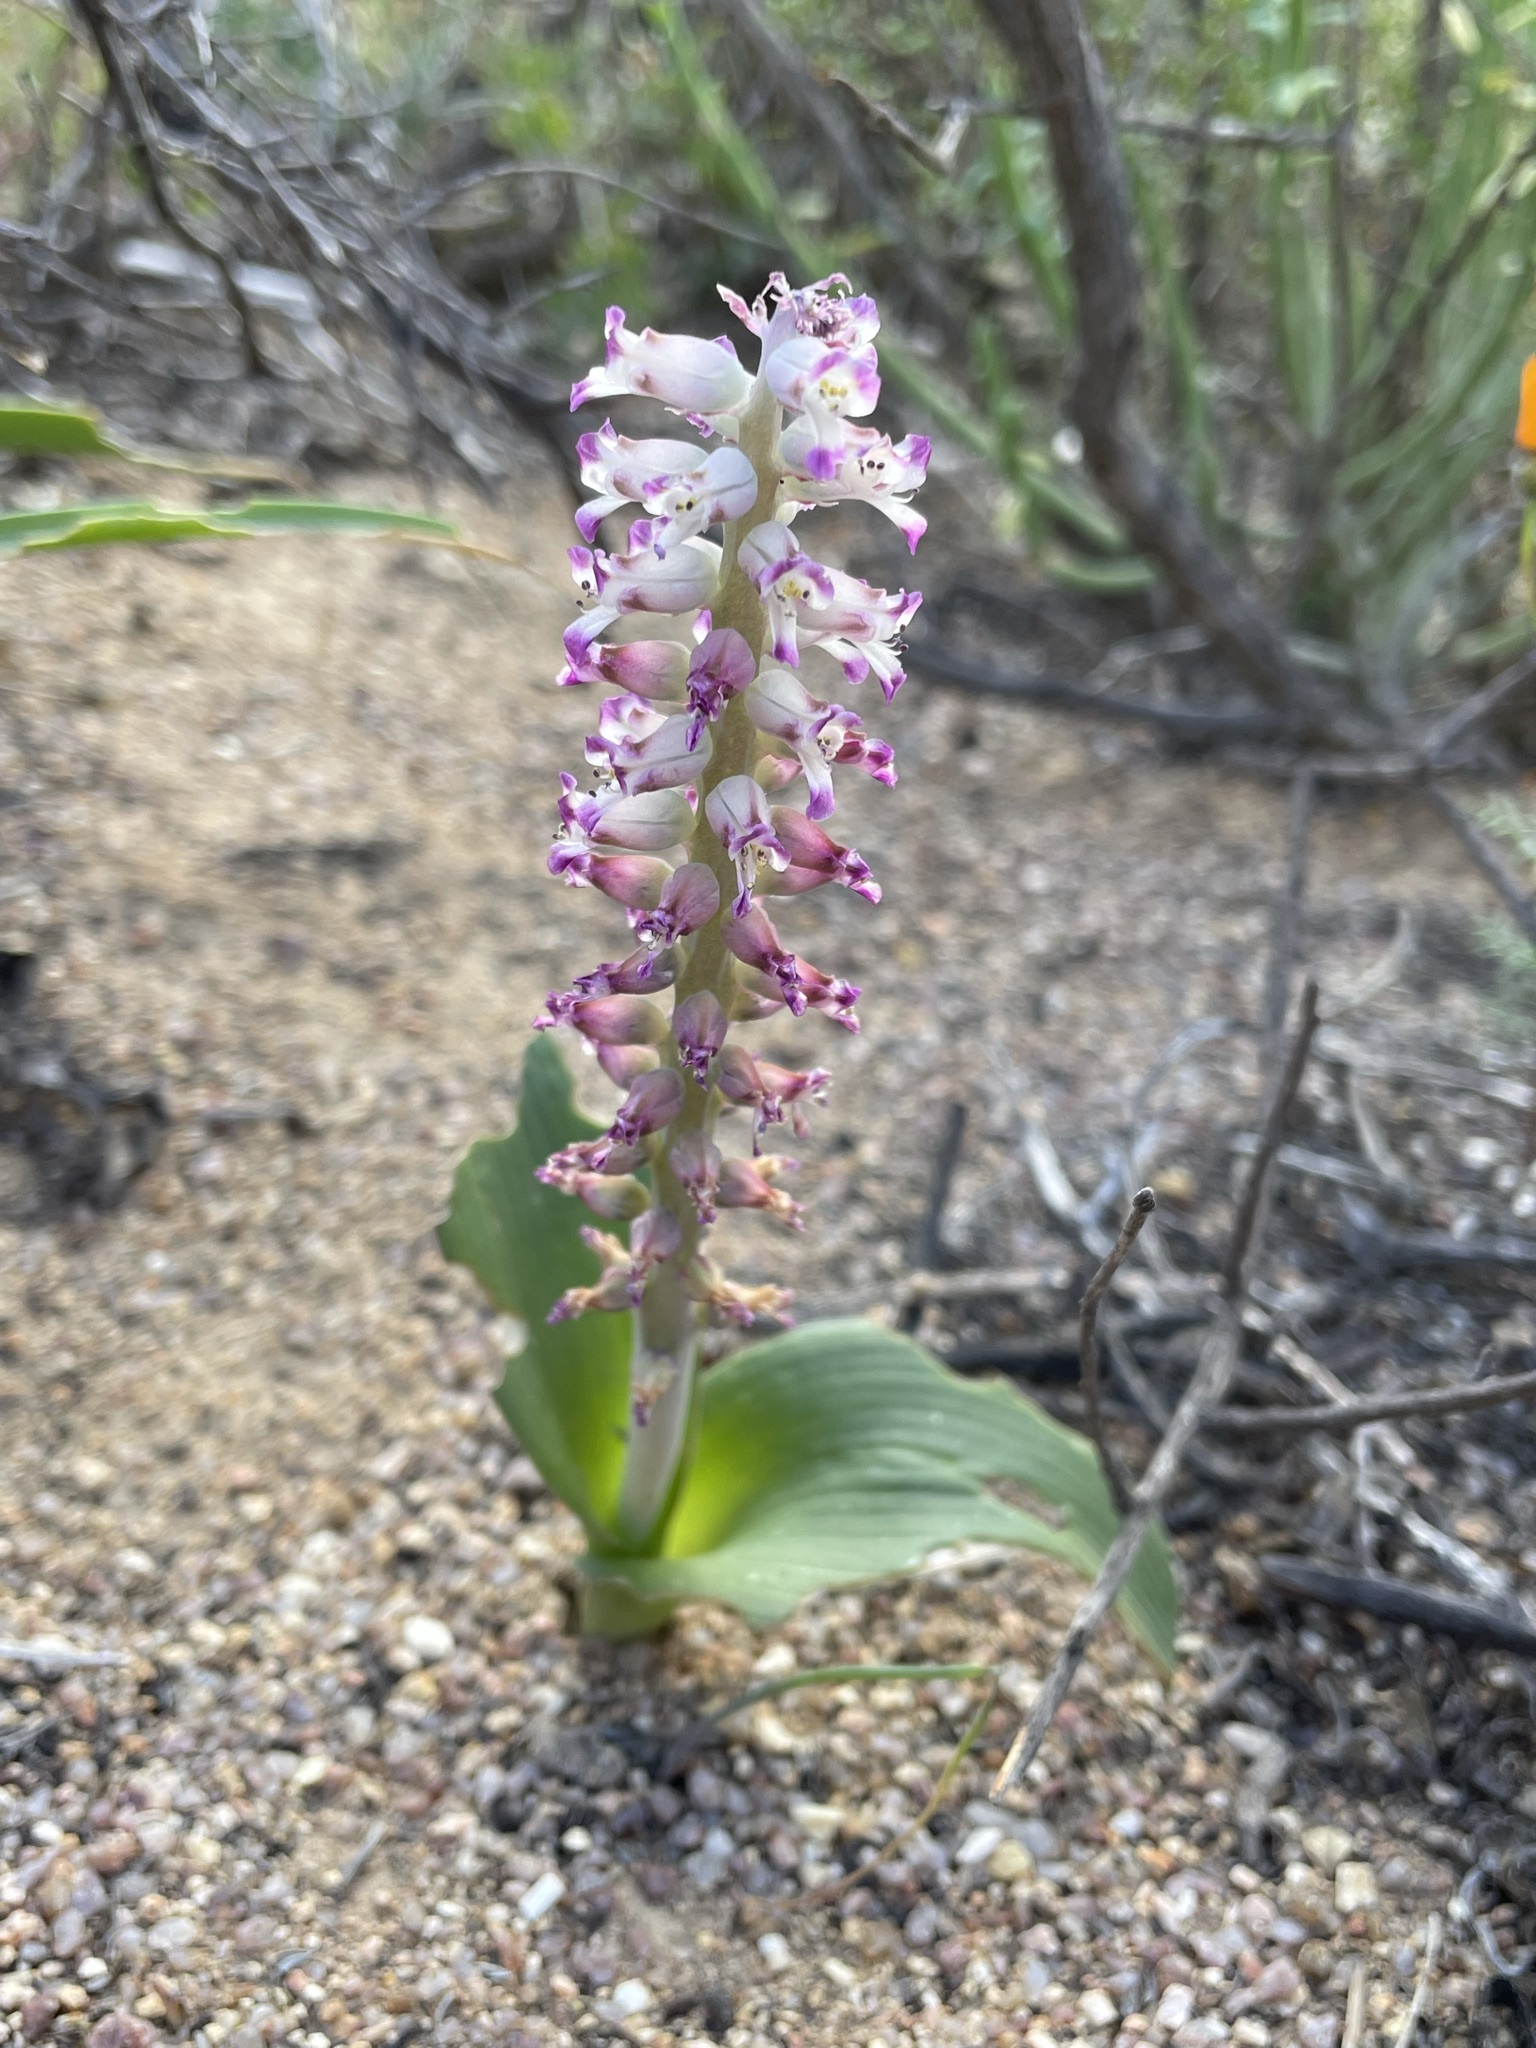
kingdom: Plantae
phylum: Tracheophyta
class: Liliopsida
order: Asparagales
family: Asparagaceae
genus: Lachenalia
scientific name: Lachenalia carnosa
